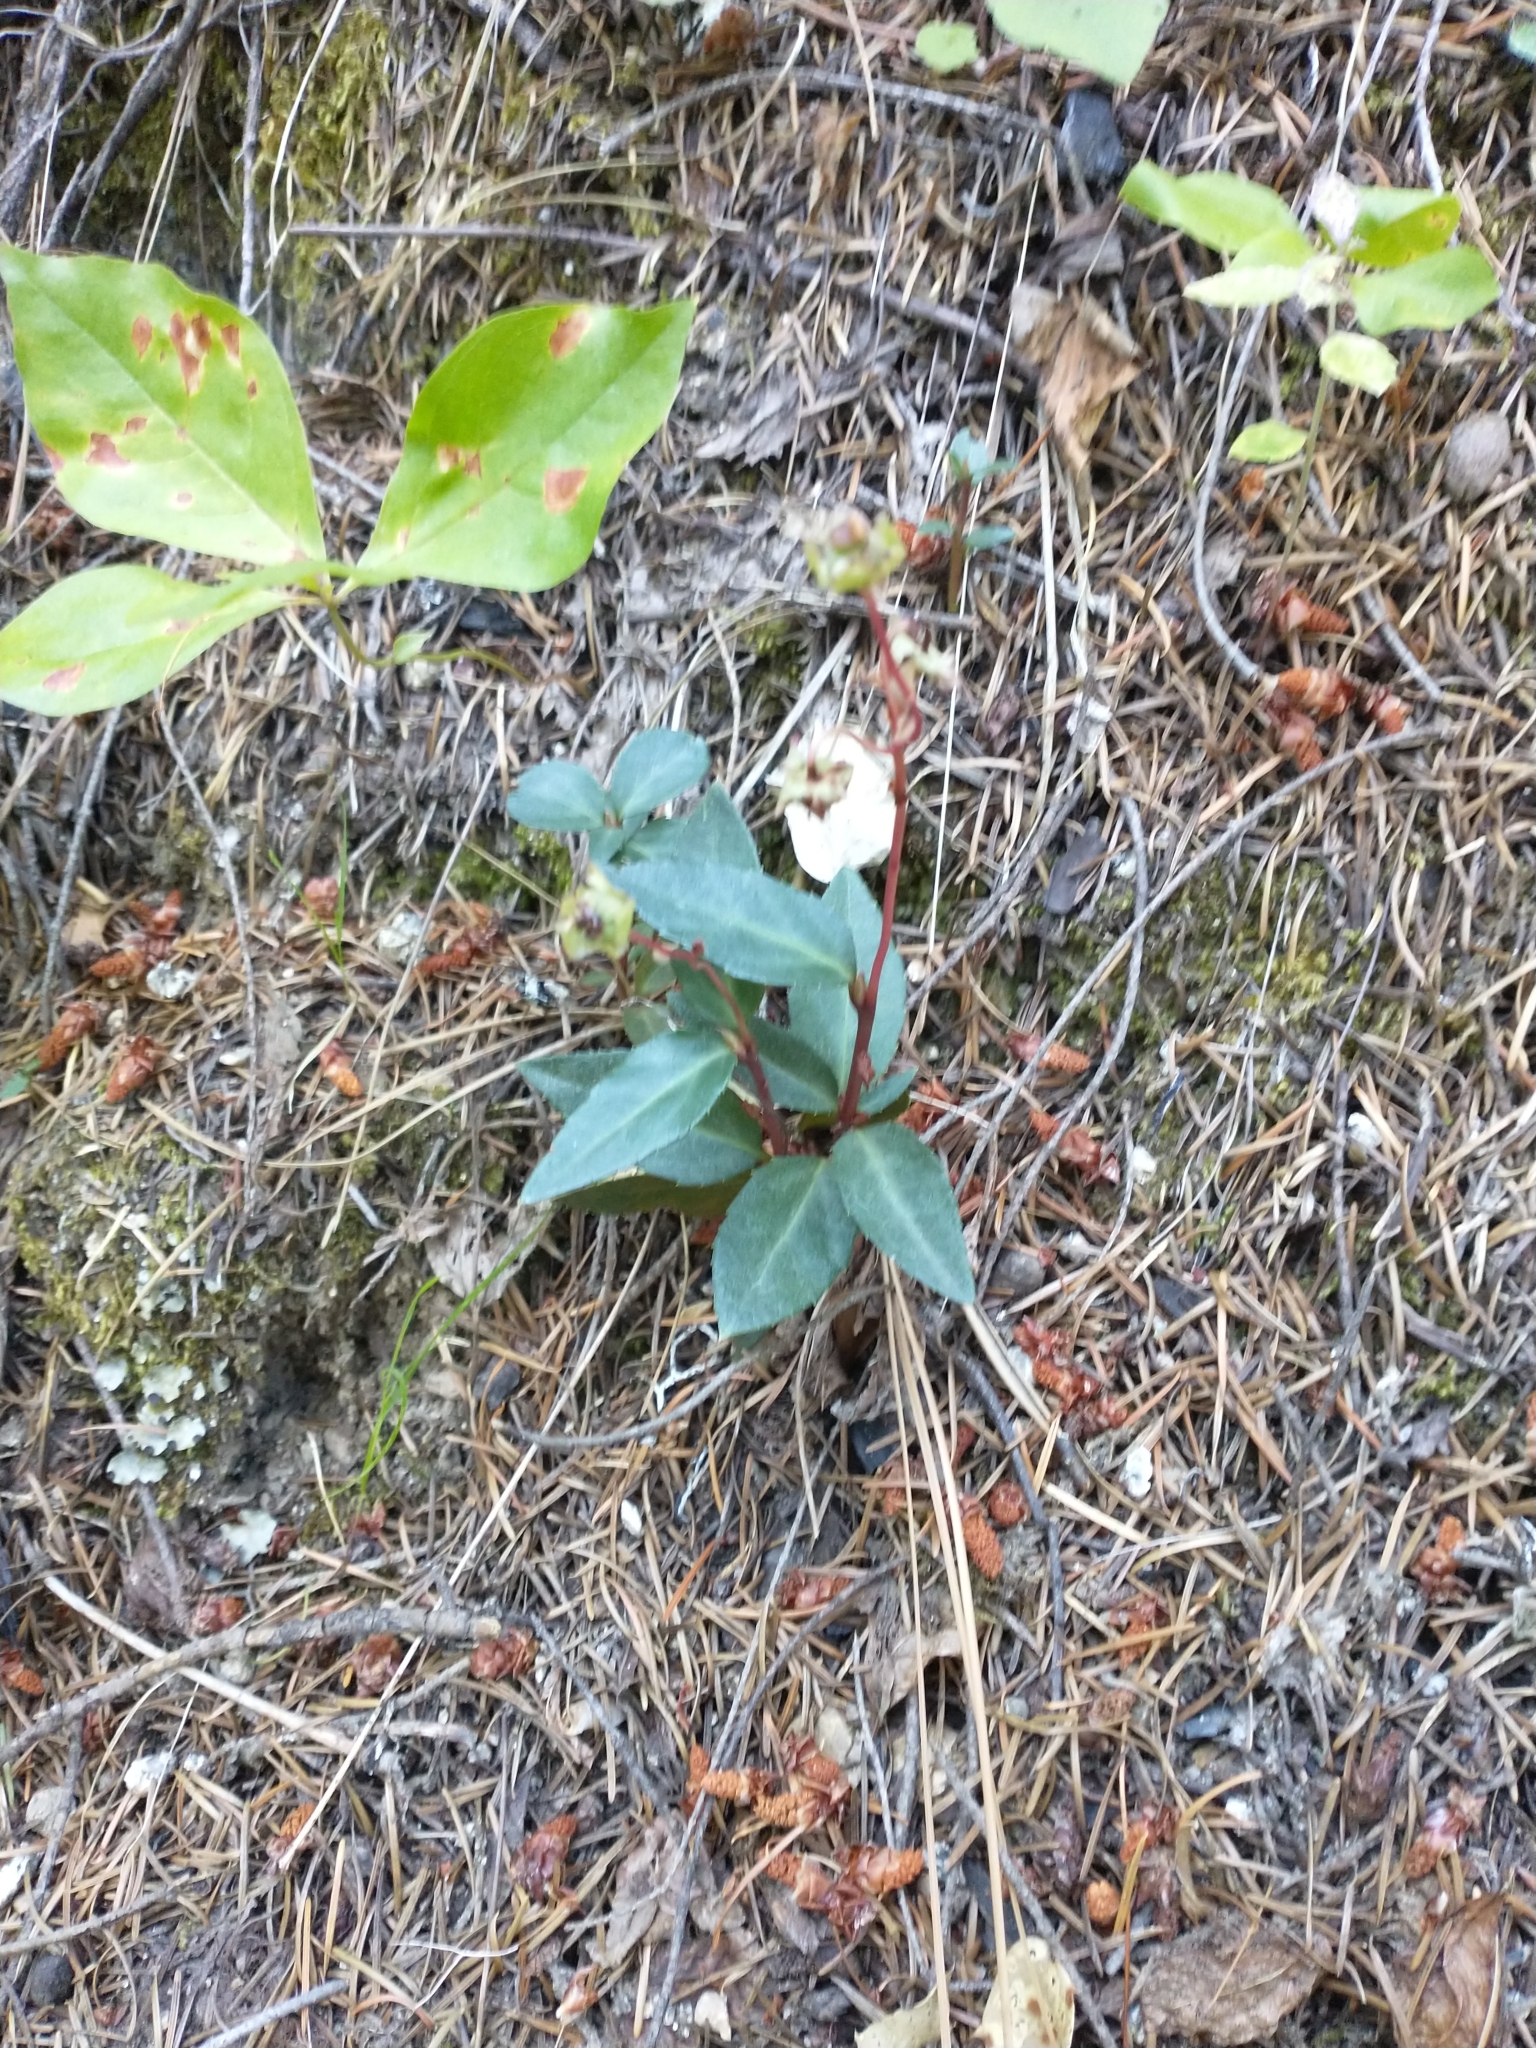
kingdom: Plantae
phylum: Tracheophyta
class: Magnoliopsida
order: Ericales
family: Ericaceae
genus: Chimaphila
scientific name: Chimaphila menziesii
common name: Menzies' pipsissewa
